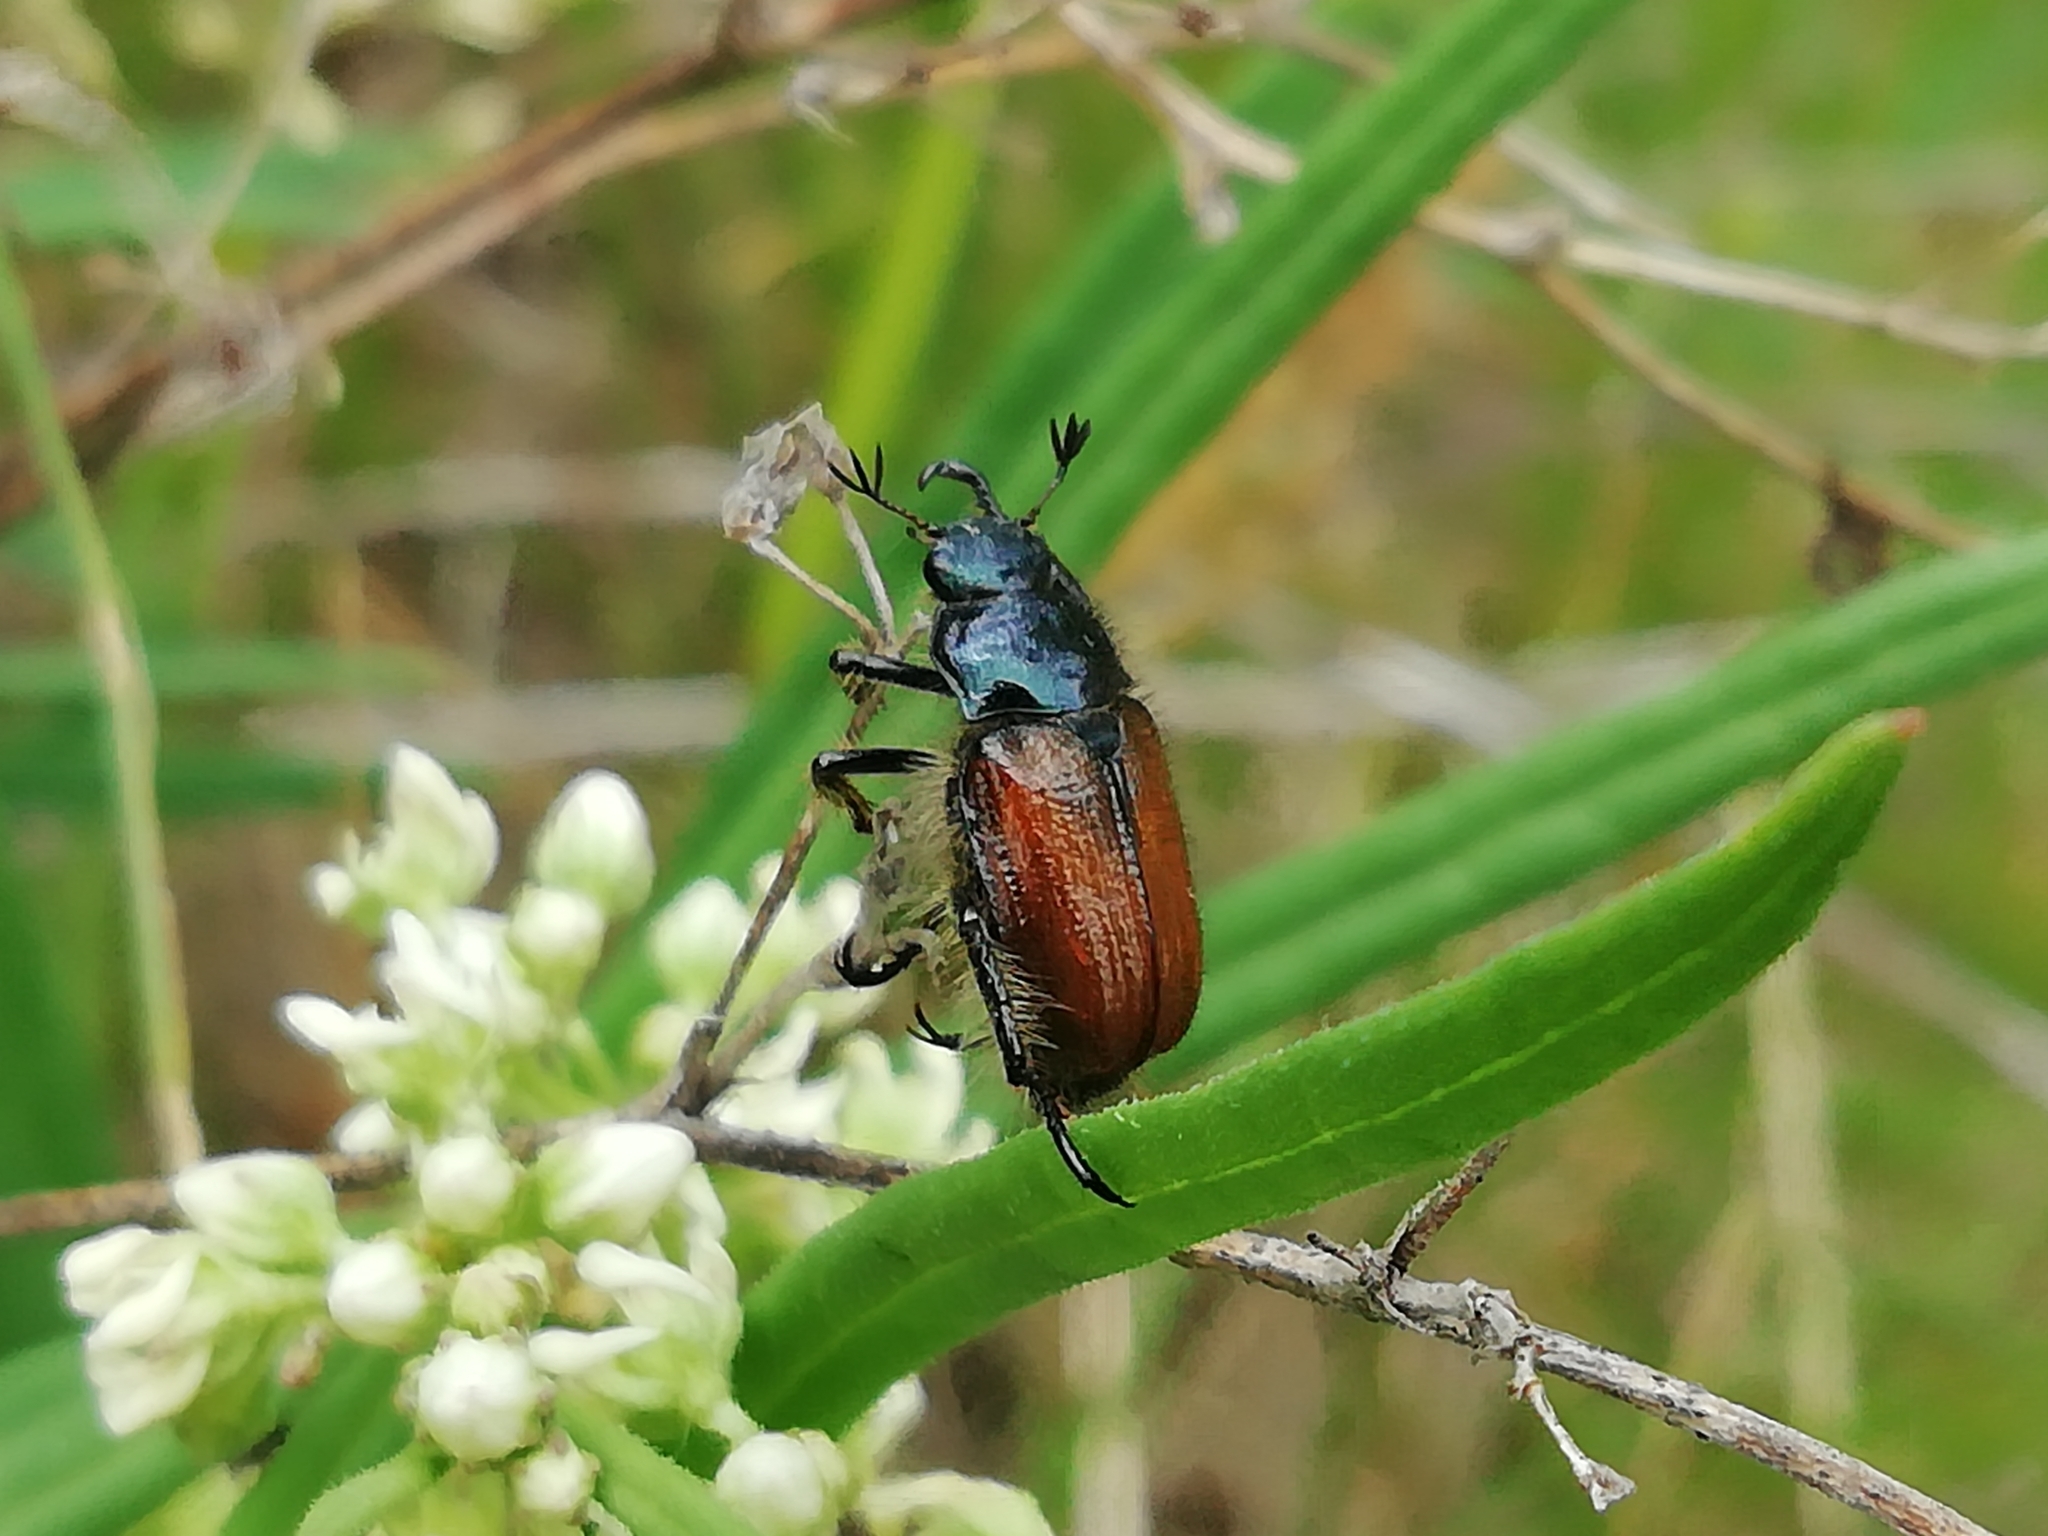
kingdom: Animalia
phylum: Arthropoda
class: Insecta
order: Coleoptera
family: Scarabaeidae
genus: Phyllopertha
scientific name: Phyllopertha horticola
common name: Garden chafer
